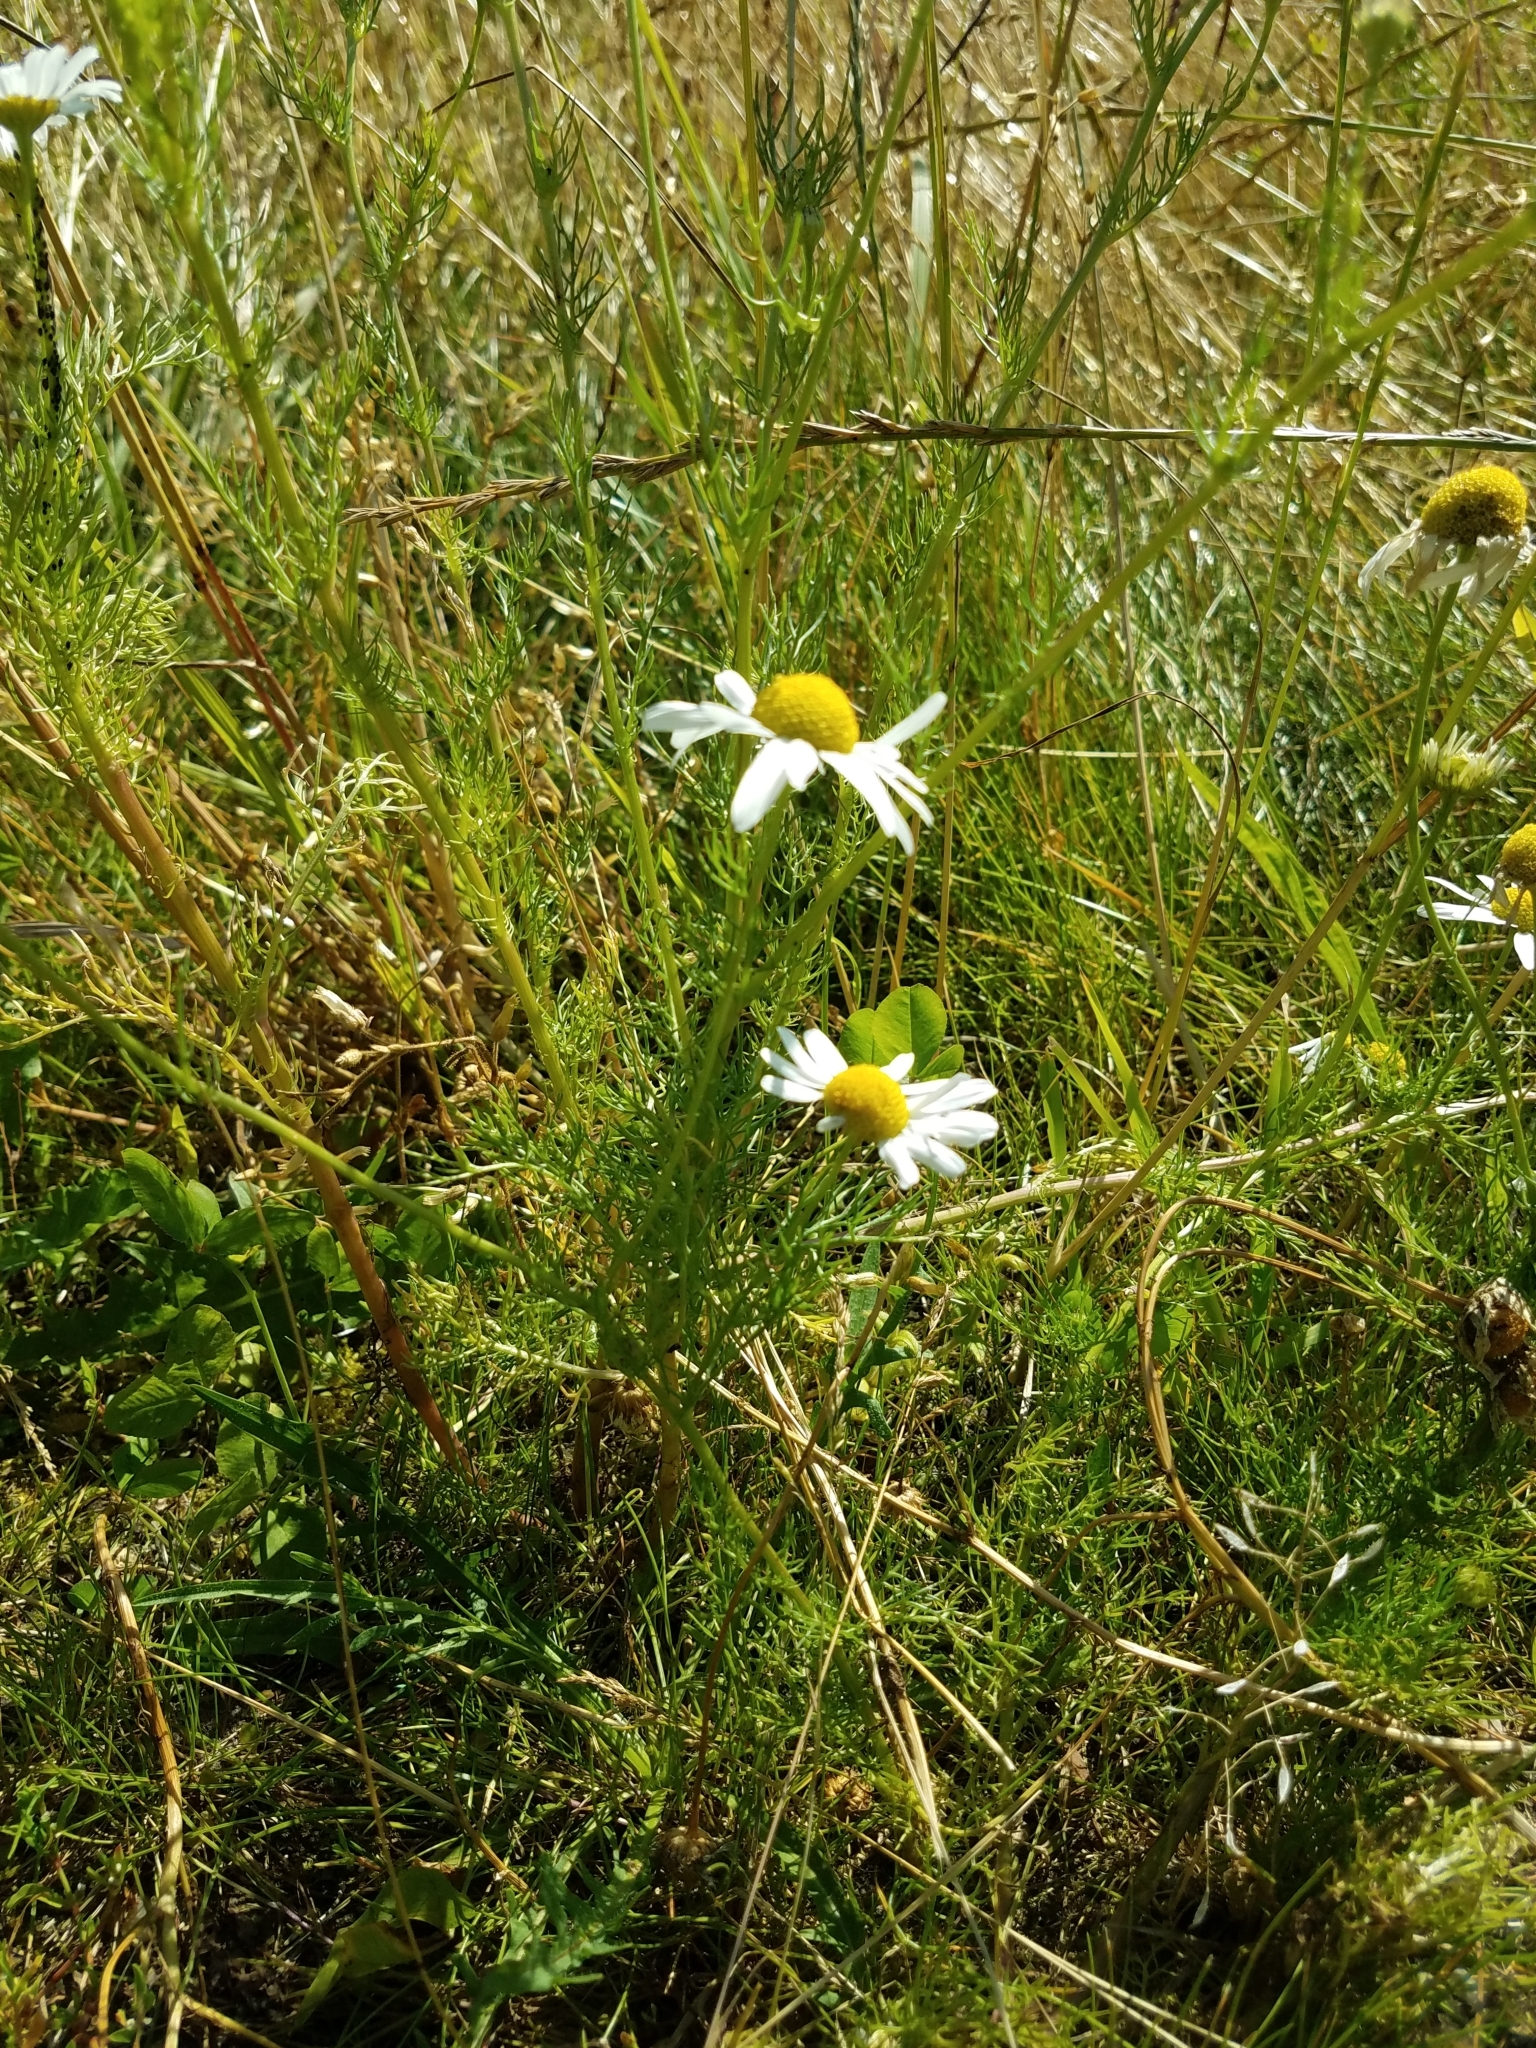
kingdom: Plantae
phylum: Tracheophyta
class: Magnoliopsida
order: Asterales
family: Asteraceae
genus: Tripleurospermum
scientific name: Tripleurospermum inodorum
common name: Scentless mayweed
